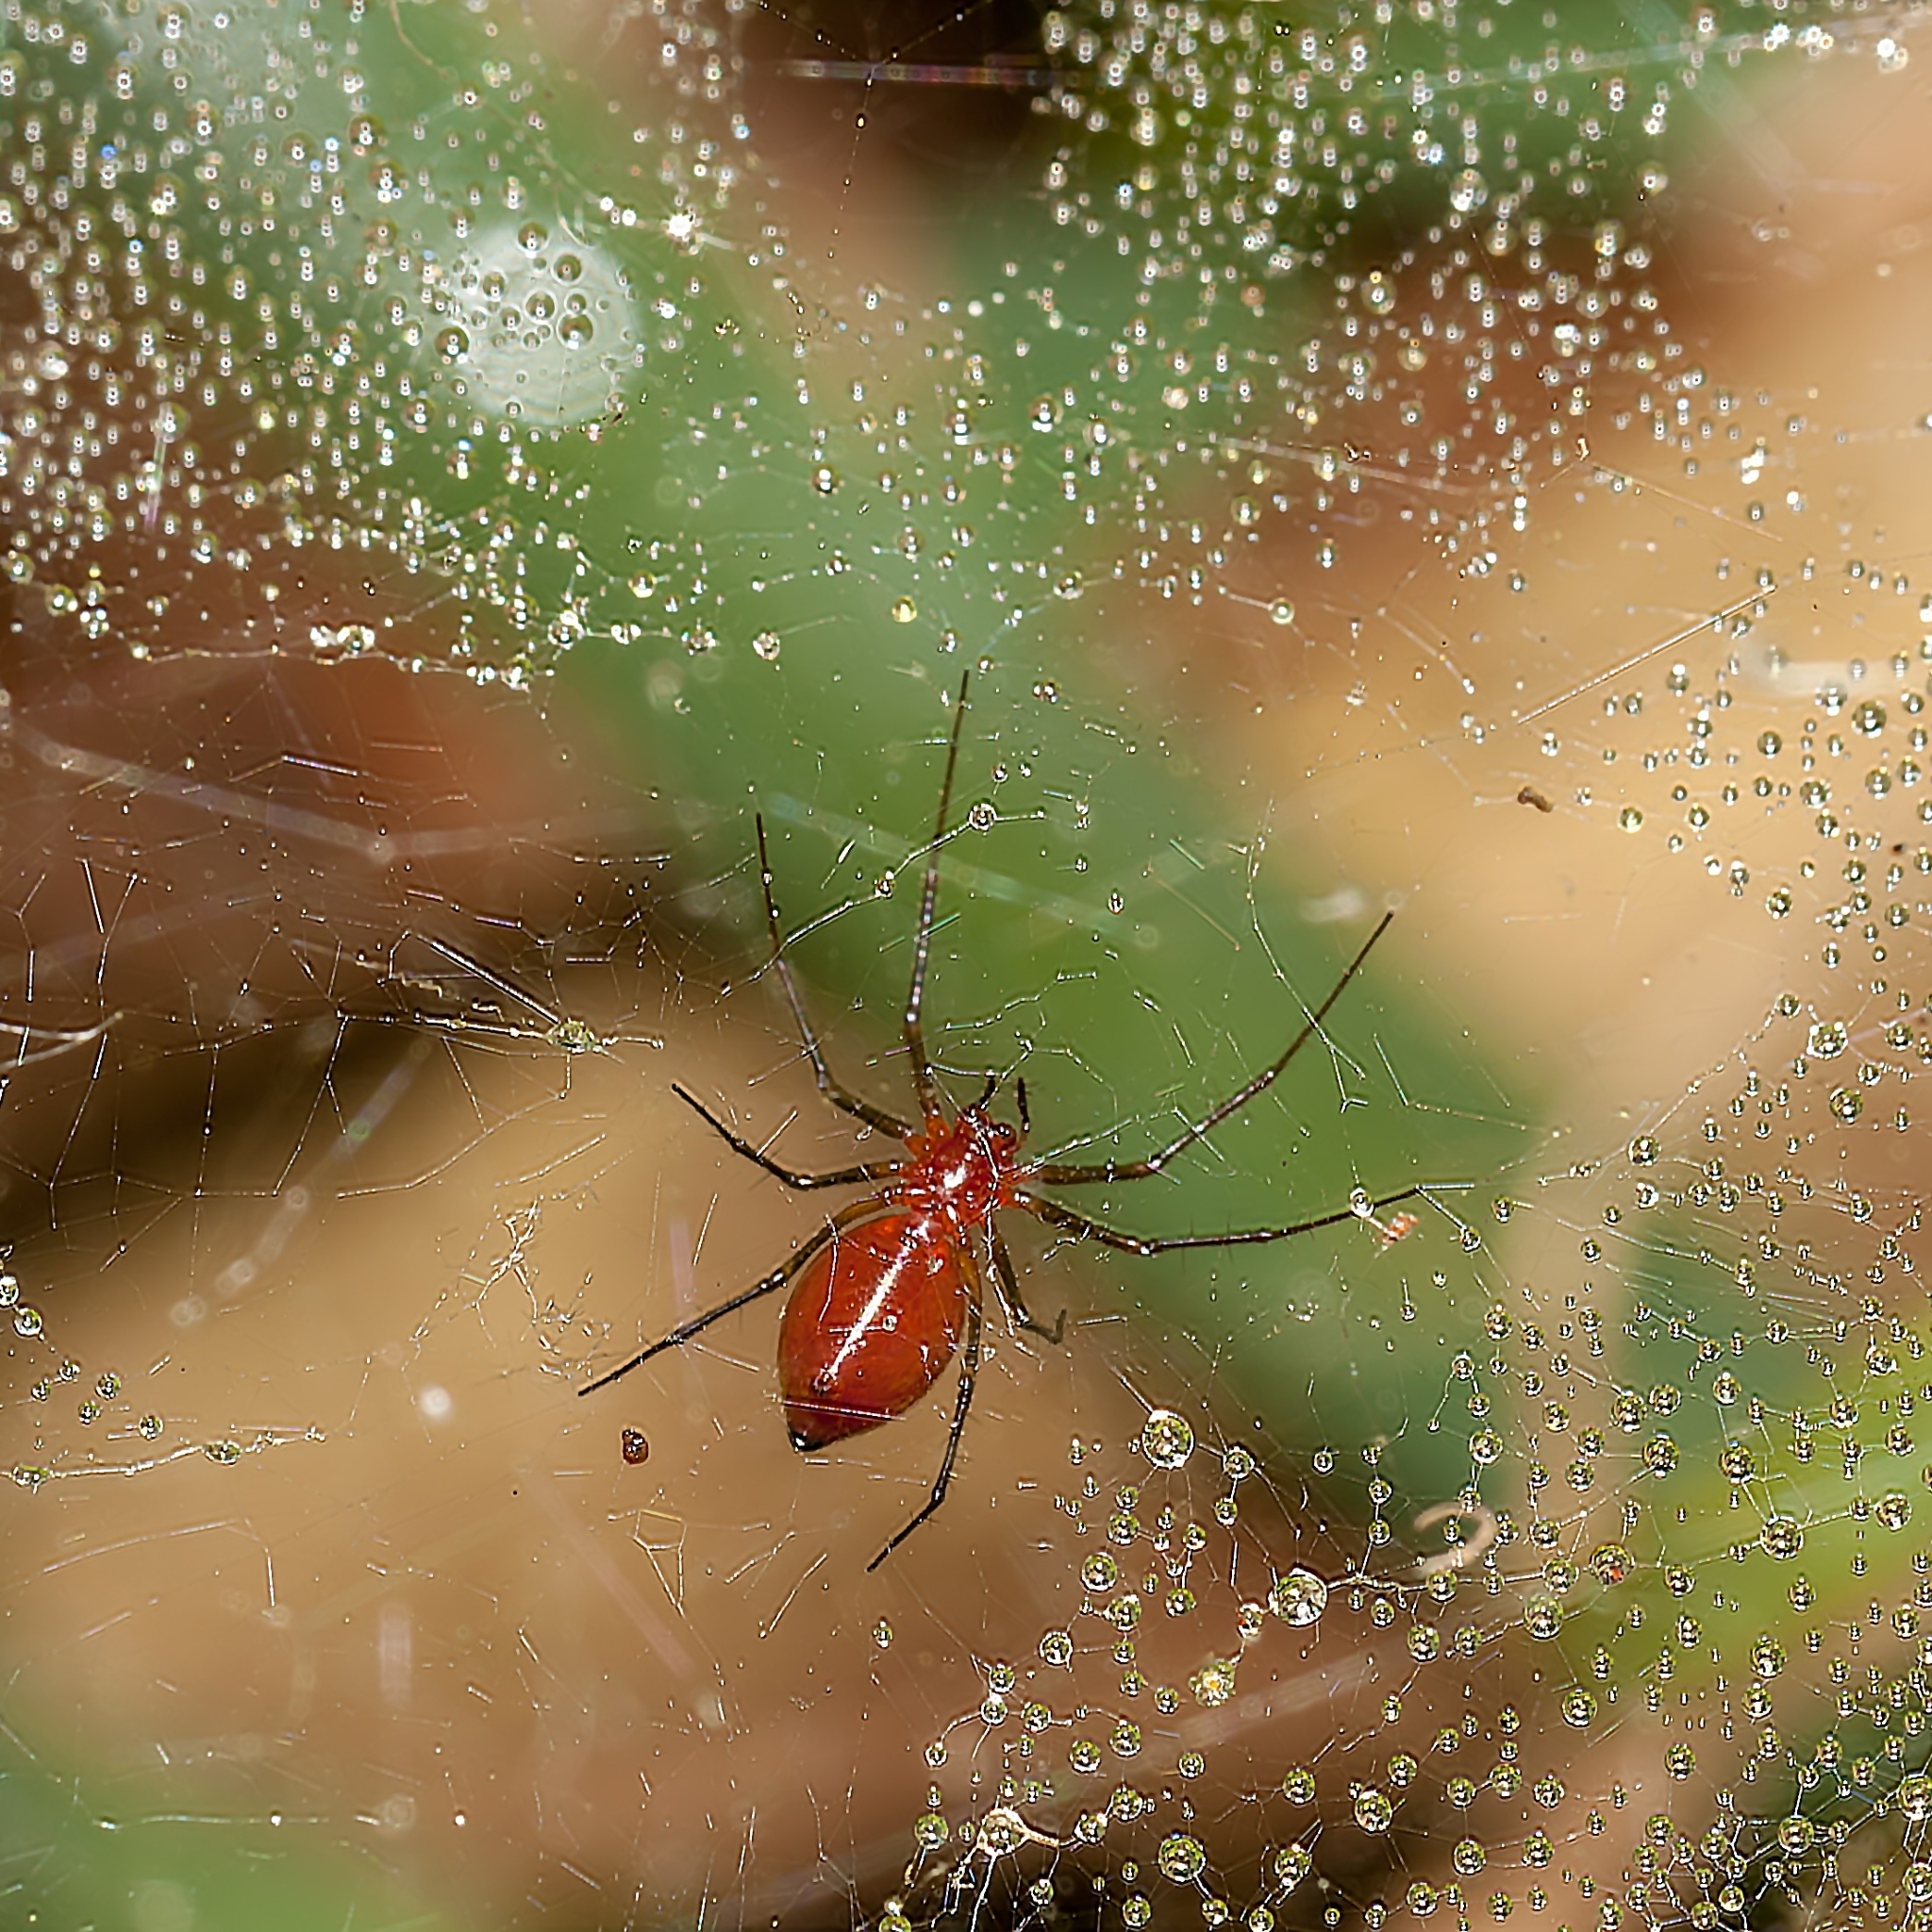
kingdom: Animalia
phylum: Arthropoda
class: Arachnida
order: Araneae
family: Linyphiidae
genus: Florinda
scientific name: Florinda coccinea
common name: Black-tailed red sheetweaver
